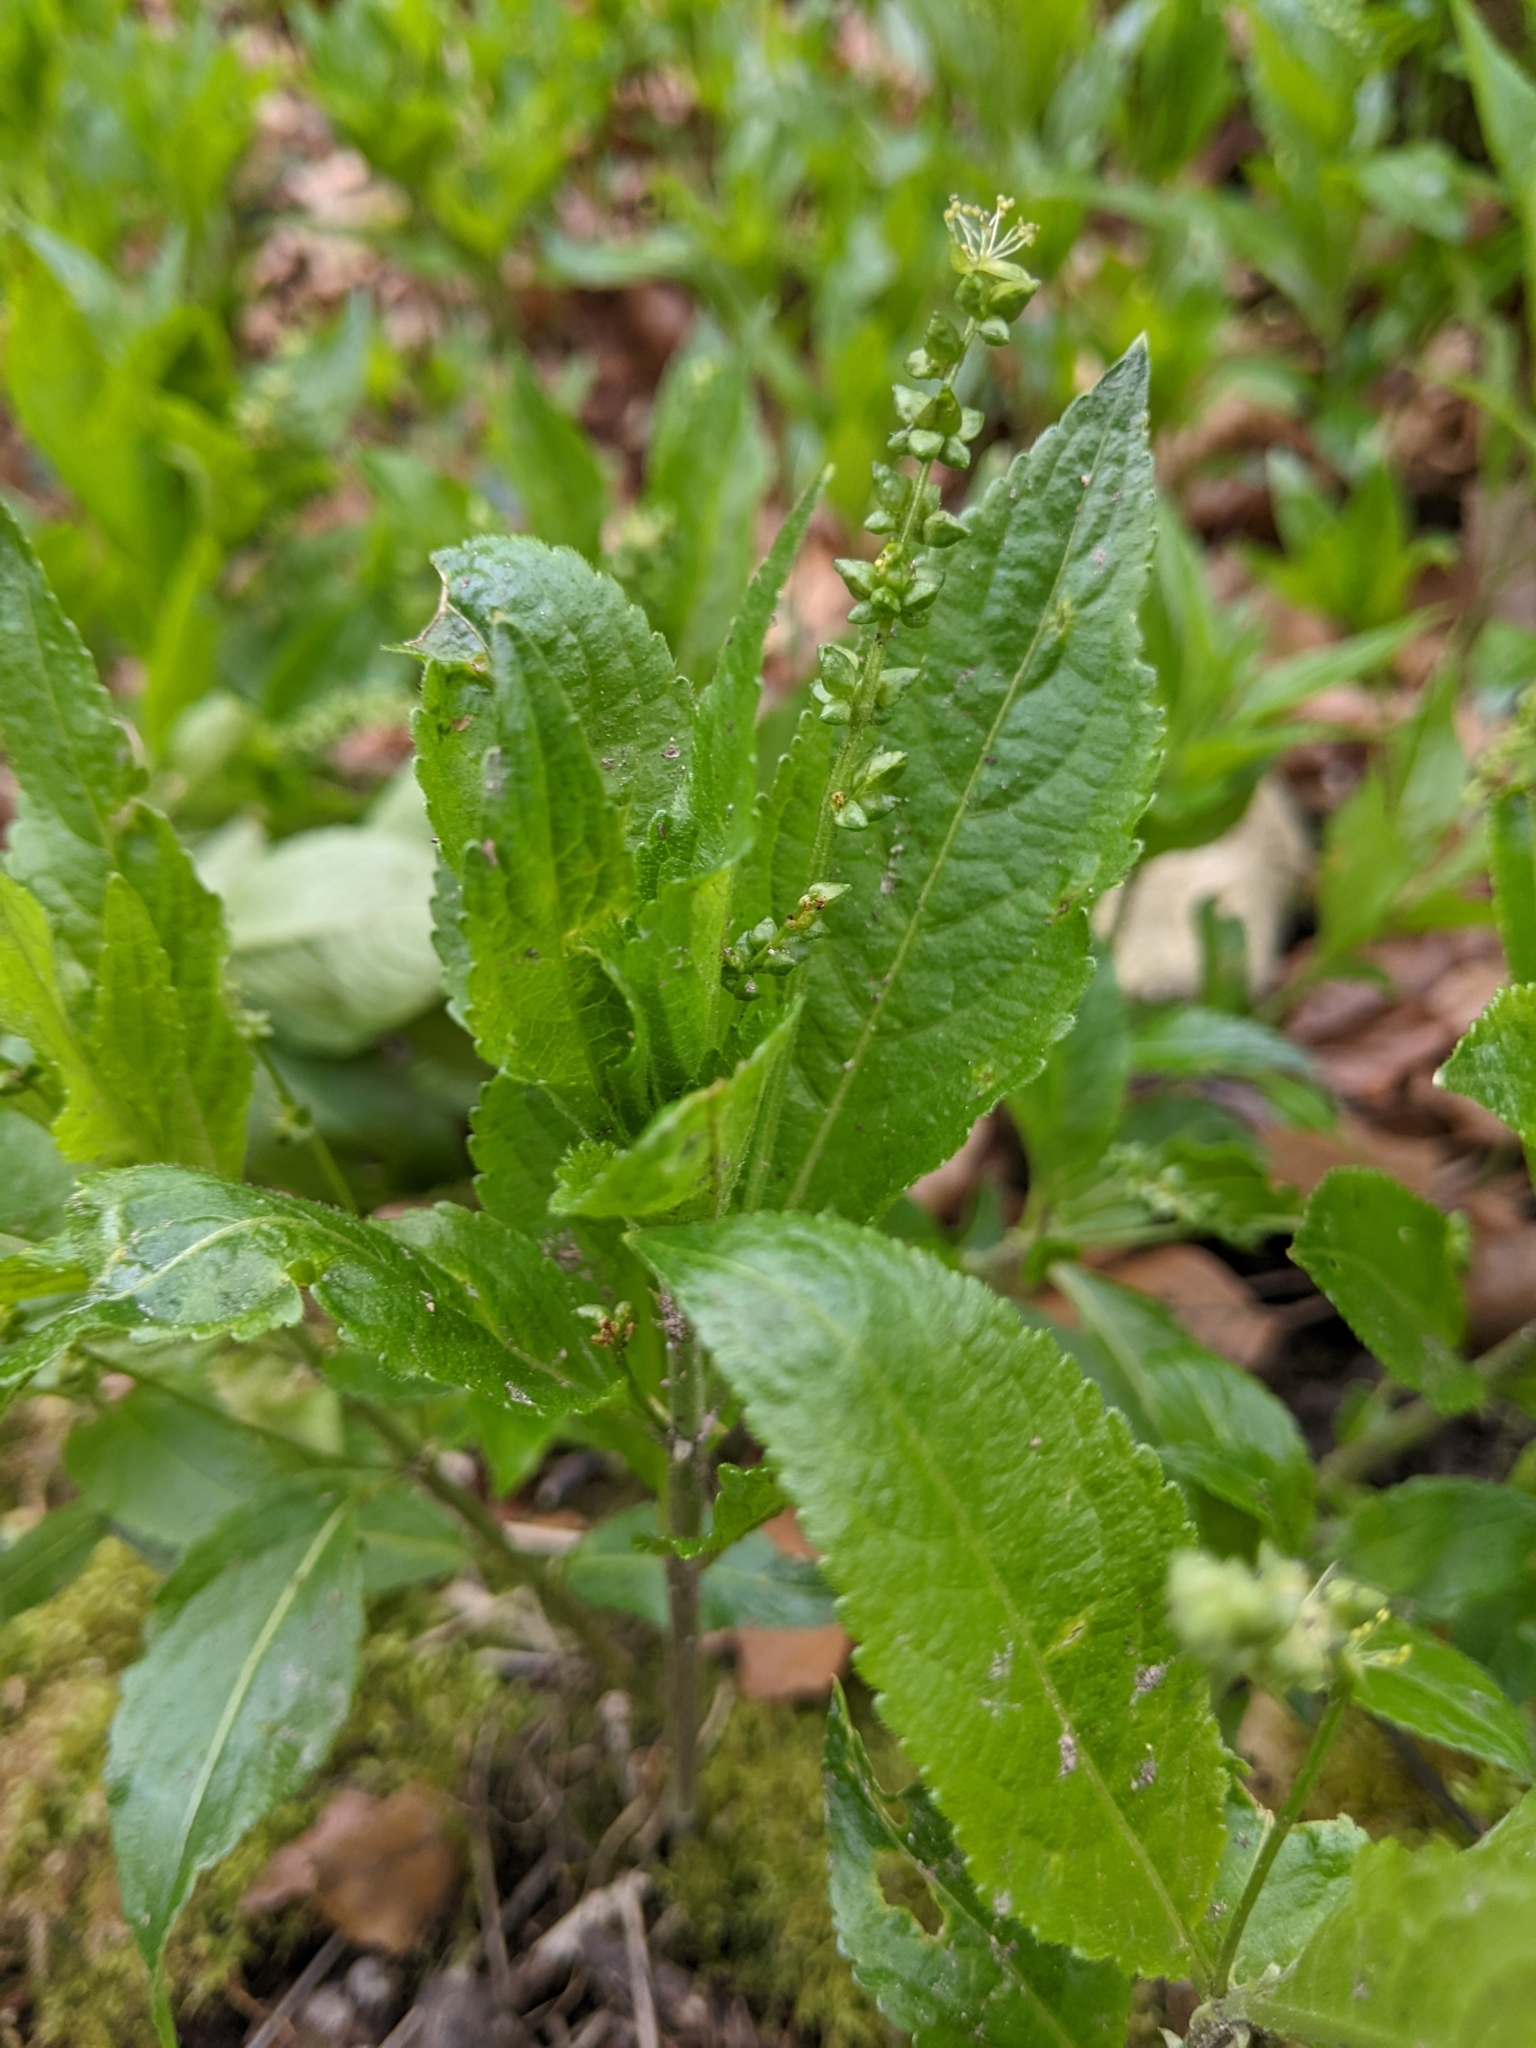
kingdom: Plantae
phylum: Tracheophyta
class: Magnoliopsida
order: Malpighiales
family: Euphorbiaceae
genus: Mercurialis
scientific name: Mercurialis perennis
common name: Dog mercury
